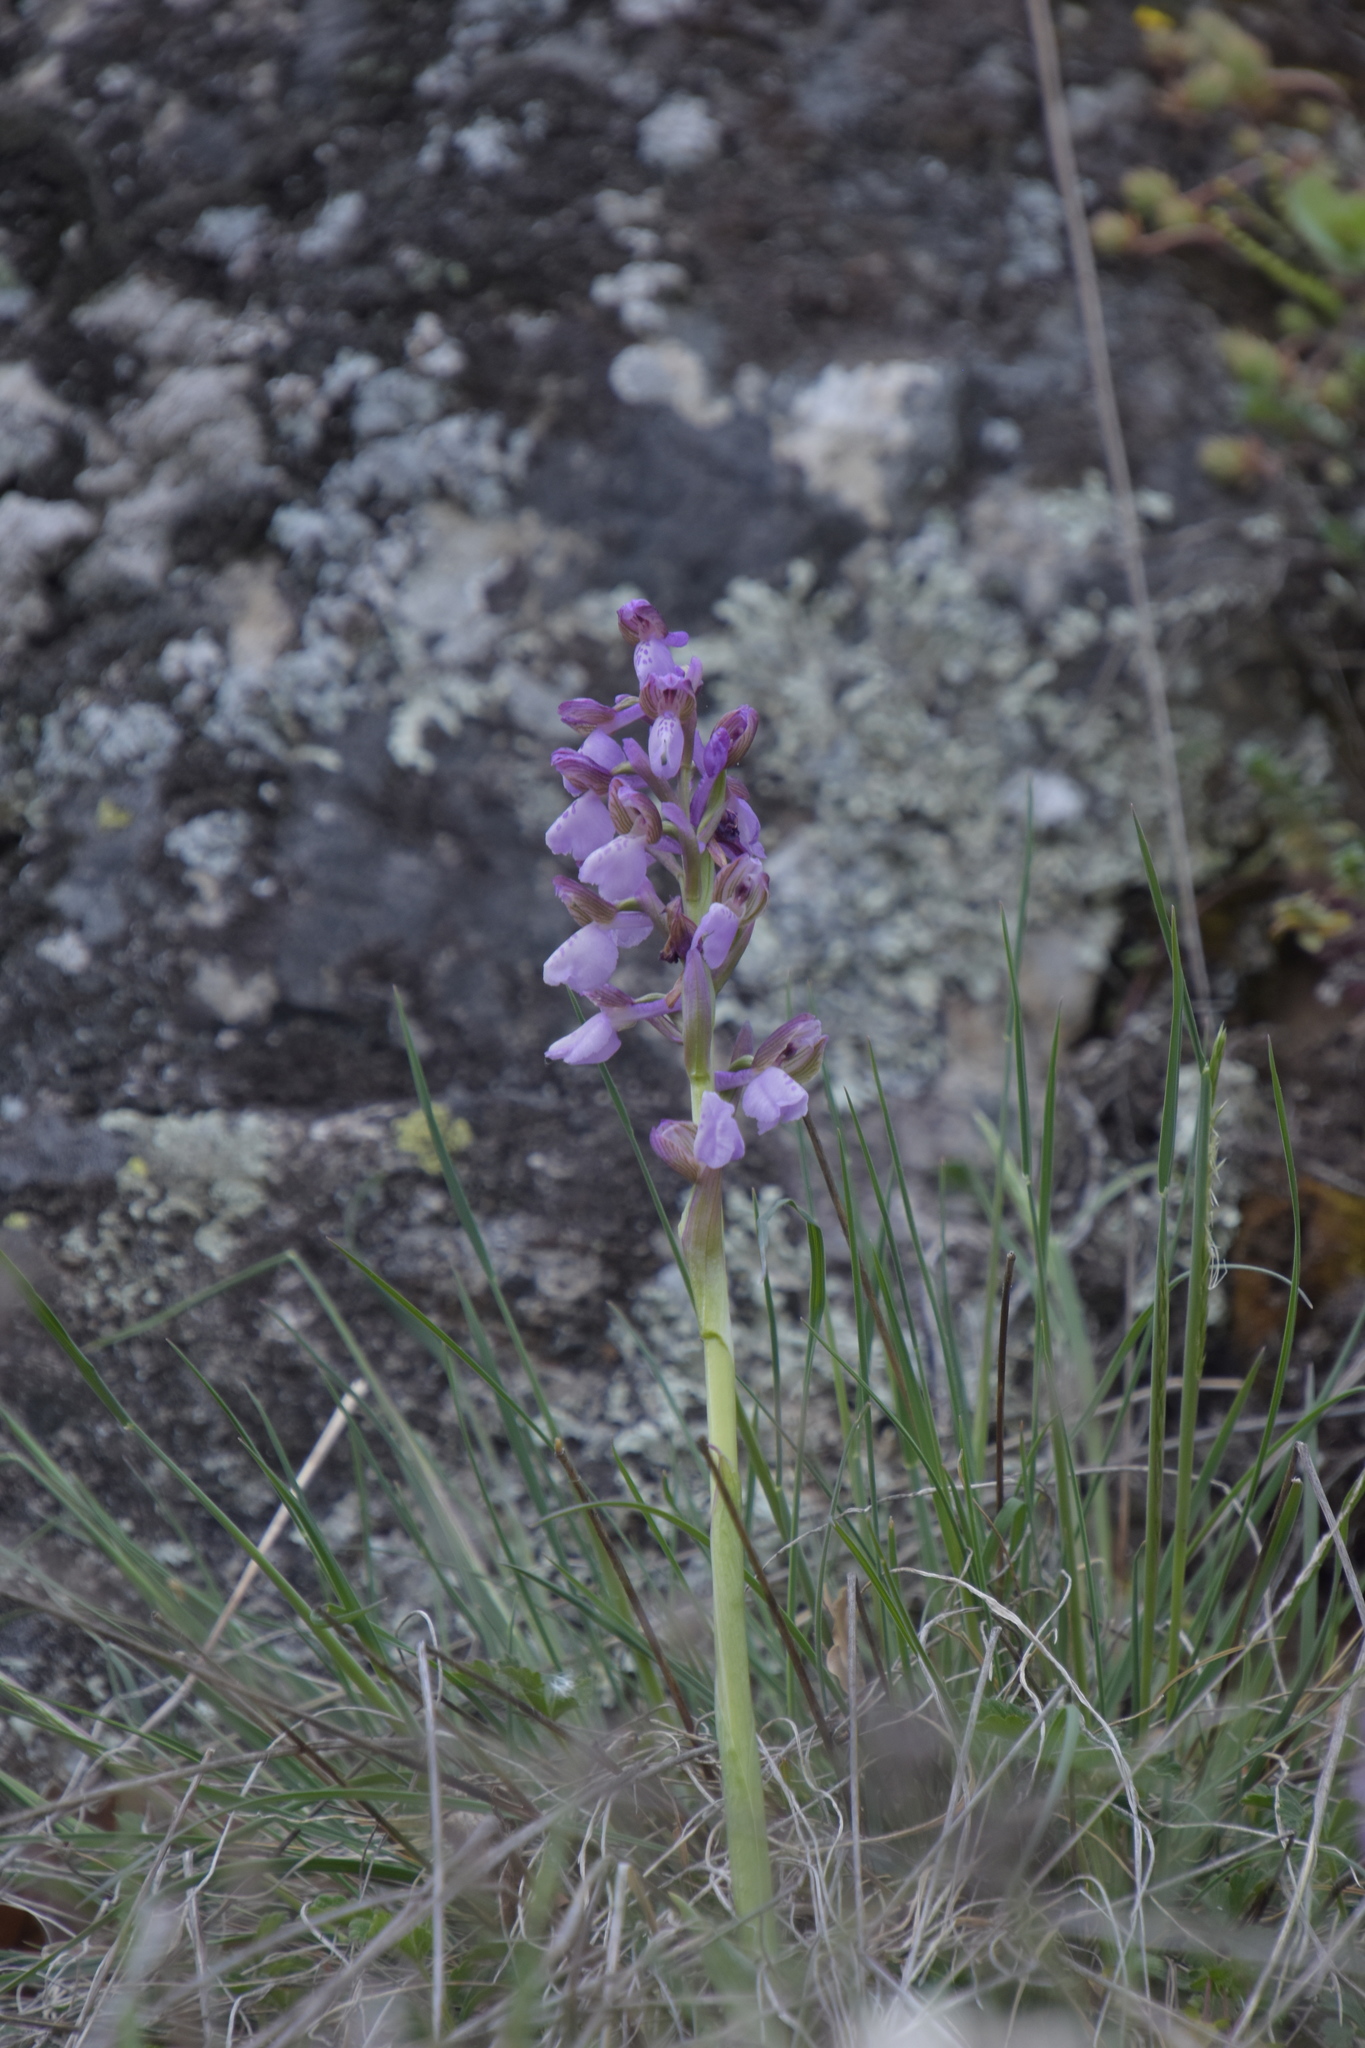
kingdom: Plantae
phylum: Tracheophyta
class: Liliopsida
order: Asparagales
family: Orchidaceae
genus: Anacamptis
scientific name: Anacamptis morio
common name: Green-winged orchid
